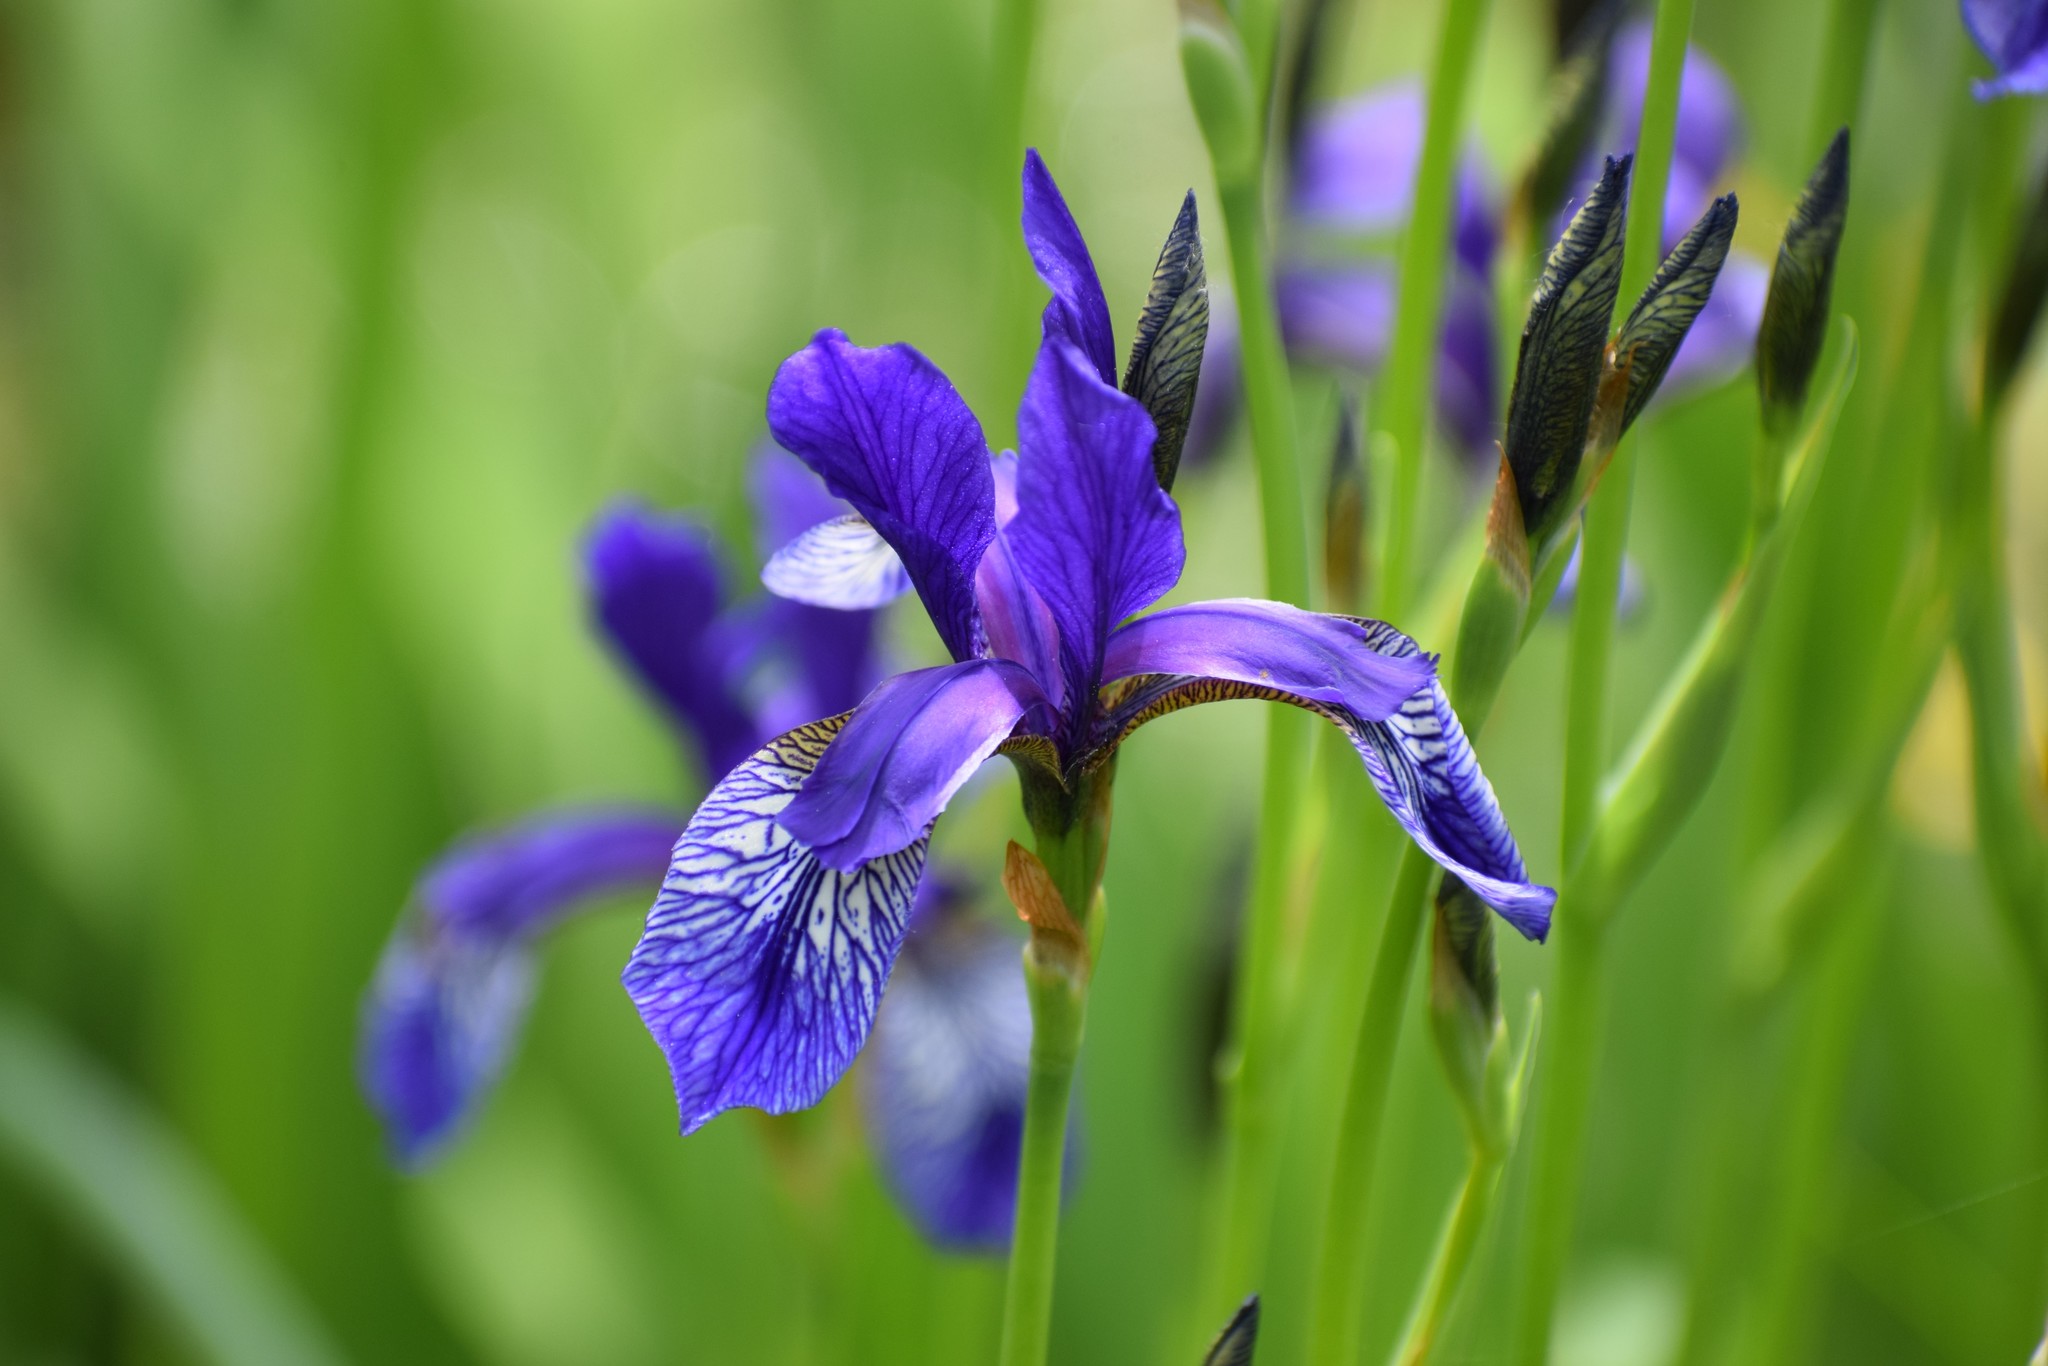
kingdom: Plantae
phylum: Tracheophyta
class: Liliopsida
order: Asparagales
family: Iridaceae
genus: Iris
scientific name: Iris sibirica
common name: Siberian iris
